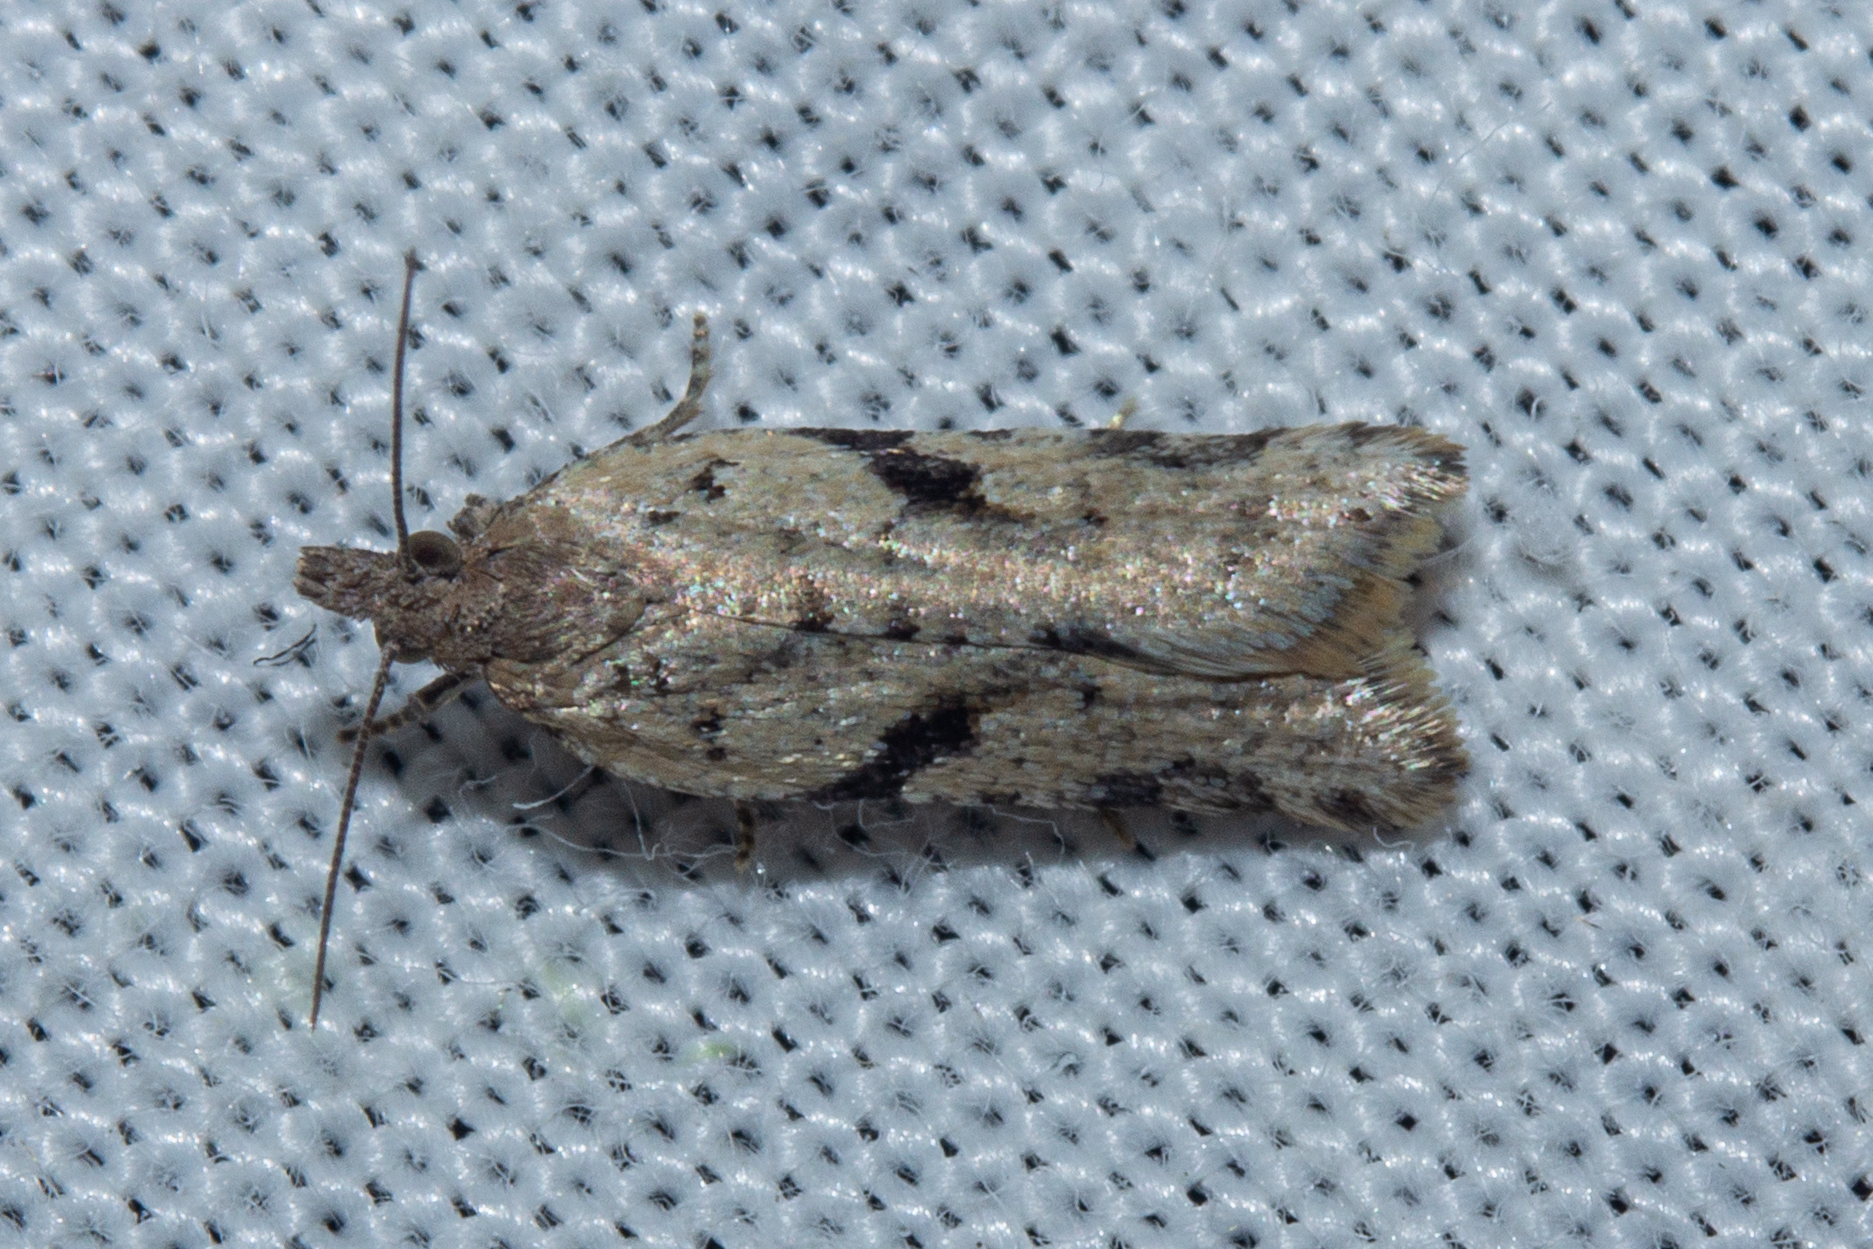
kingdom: Animalia
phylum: Arthropoda
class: Insecta
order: Lepidoptera
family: Tortricidae
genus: Capua
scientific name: Capua semiferana
